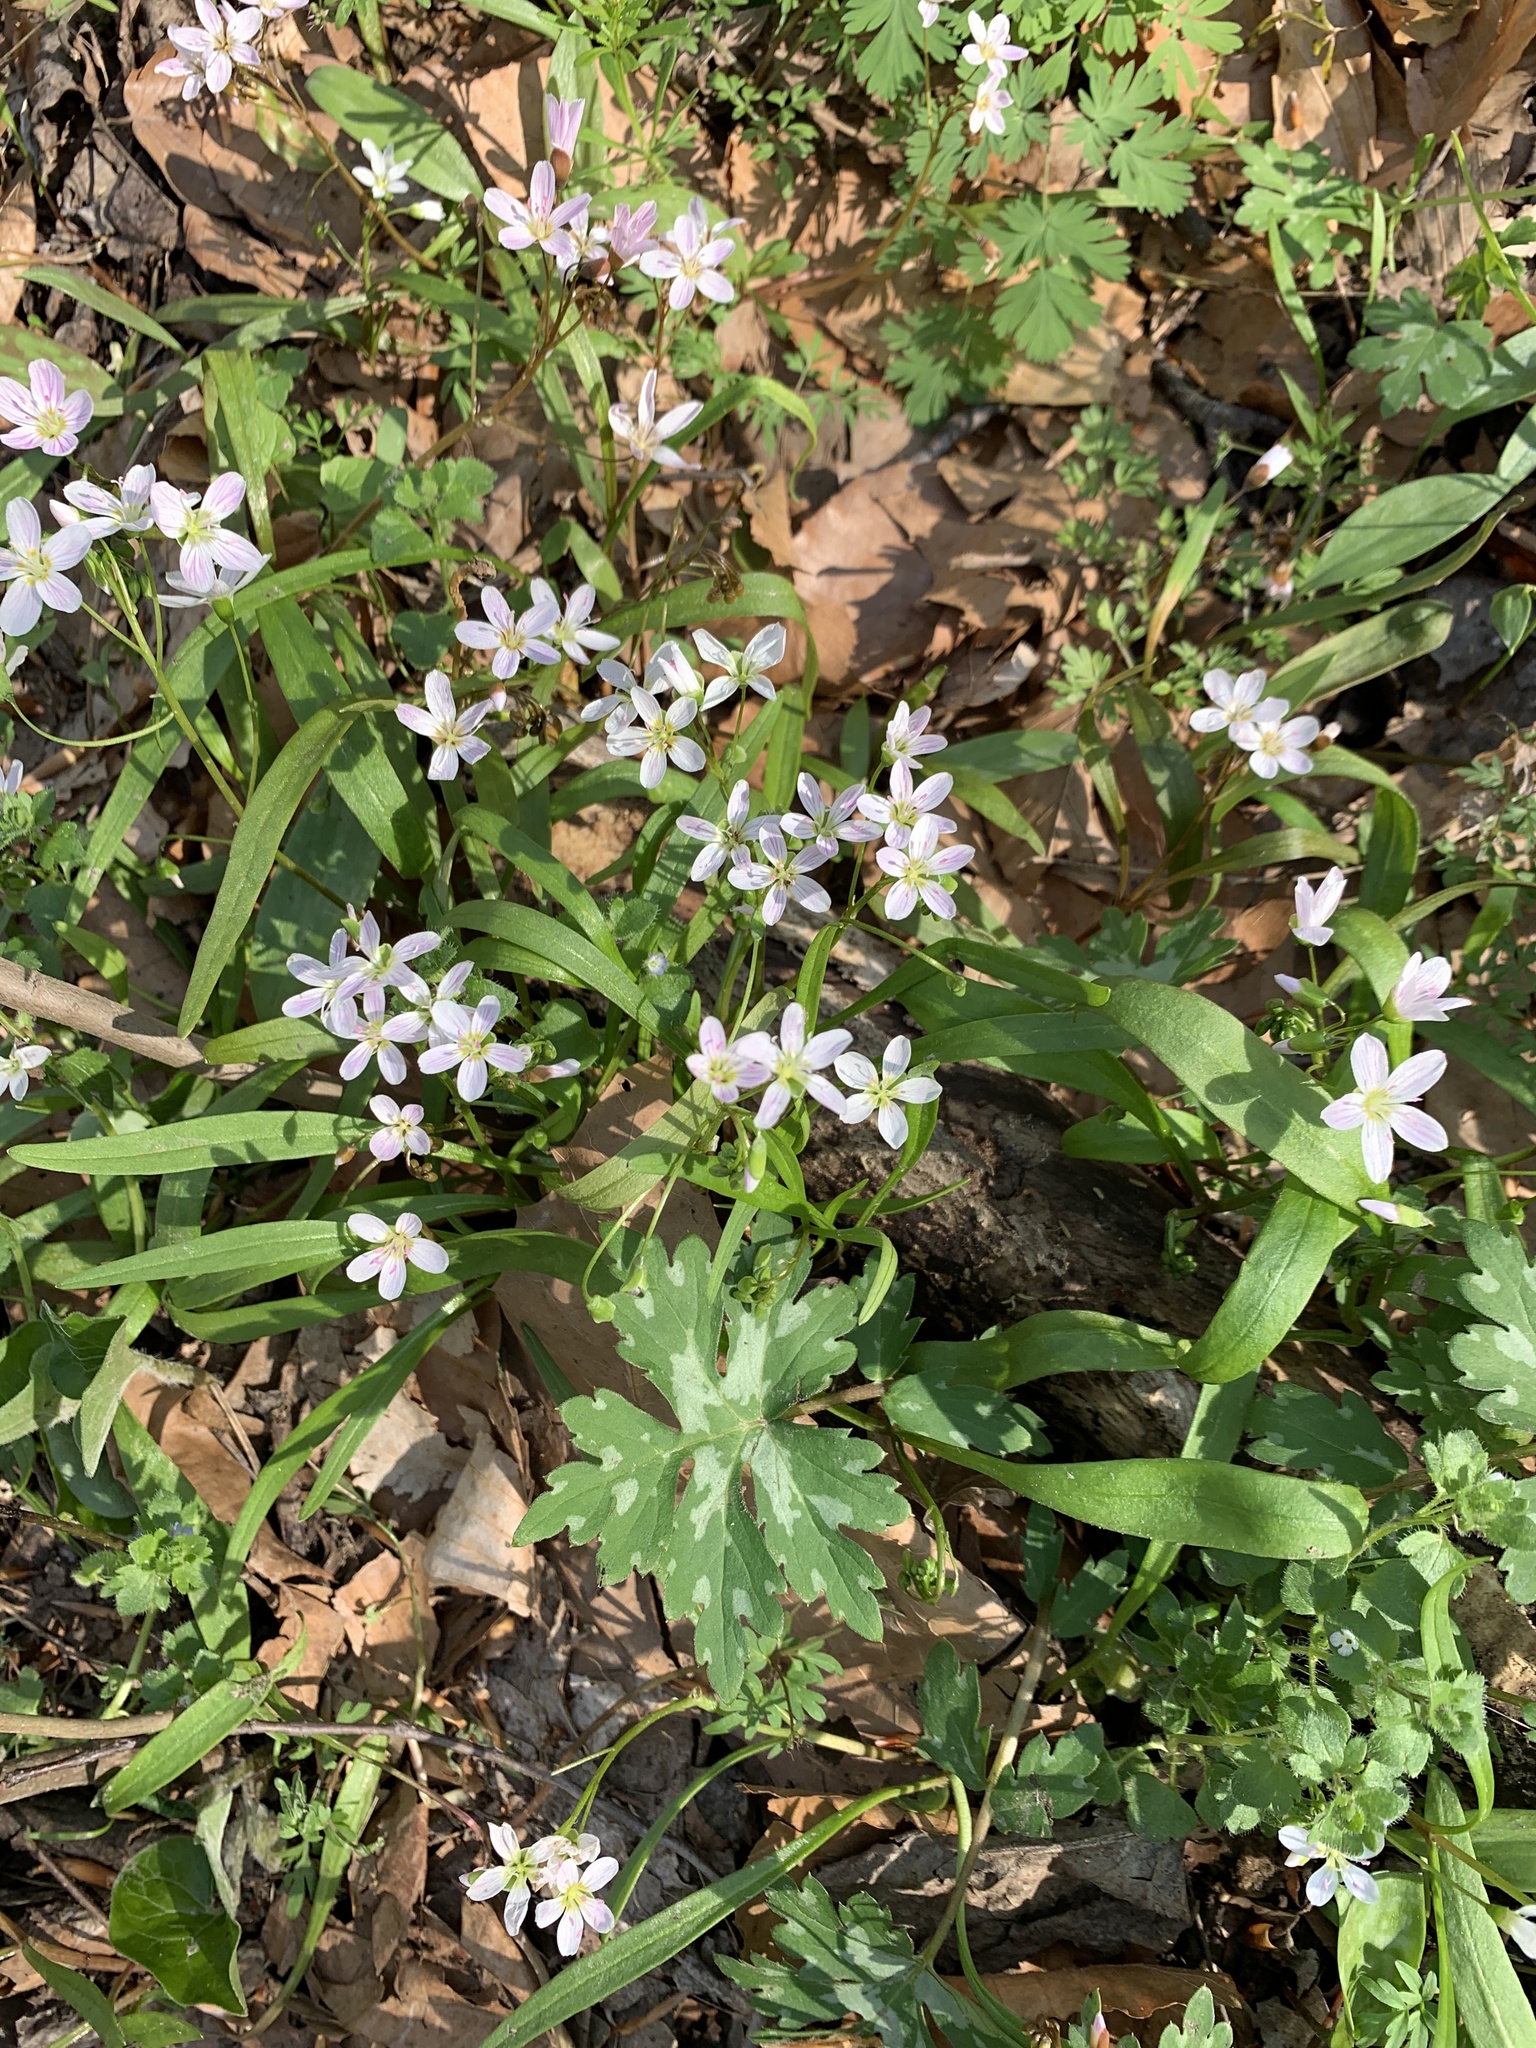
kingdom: Plantae
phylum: Tracheophyta
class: Magnoliopsida
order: Caryophyllales
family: Montiaceae
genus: Claytonia
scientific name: Claytonia virginica
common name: Virginia springbeauty
